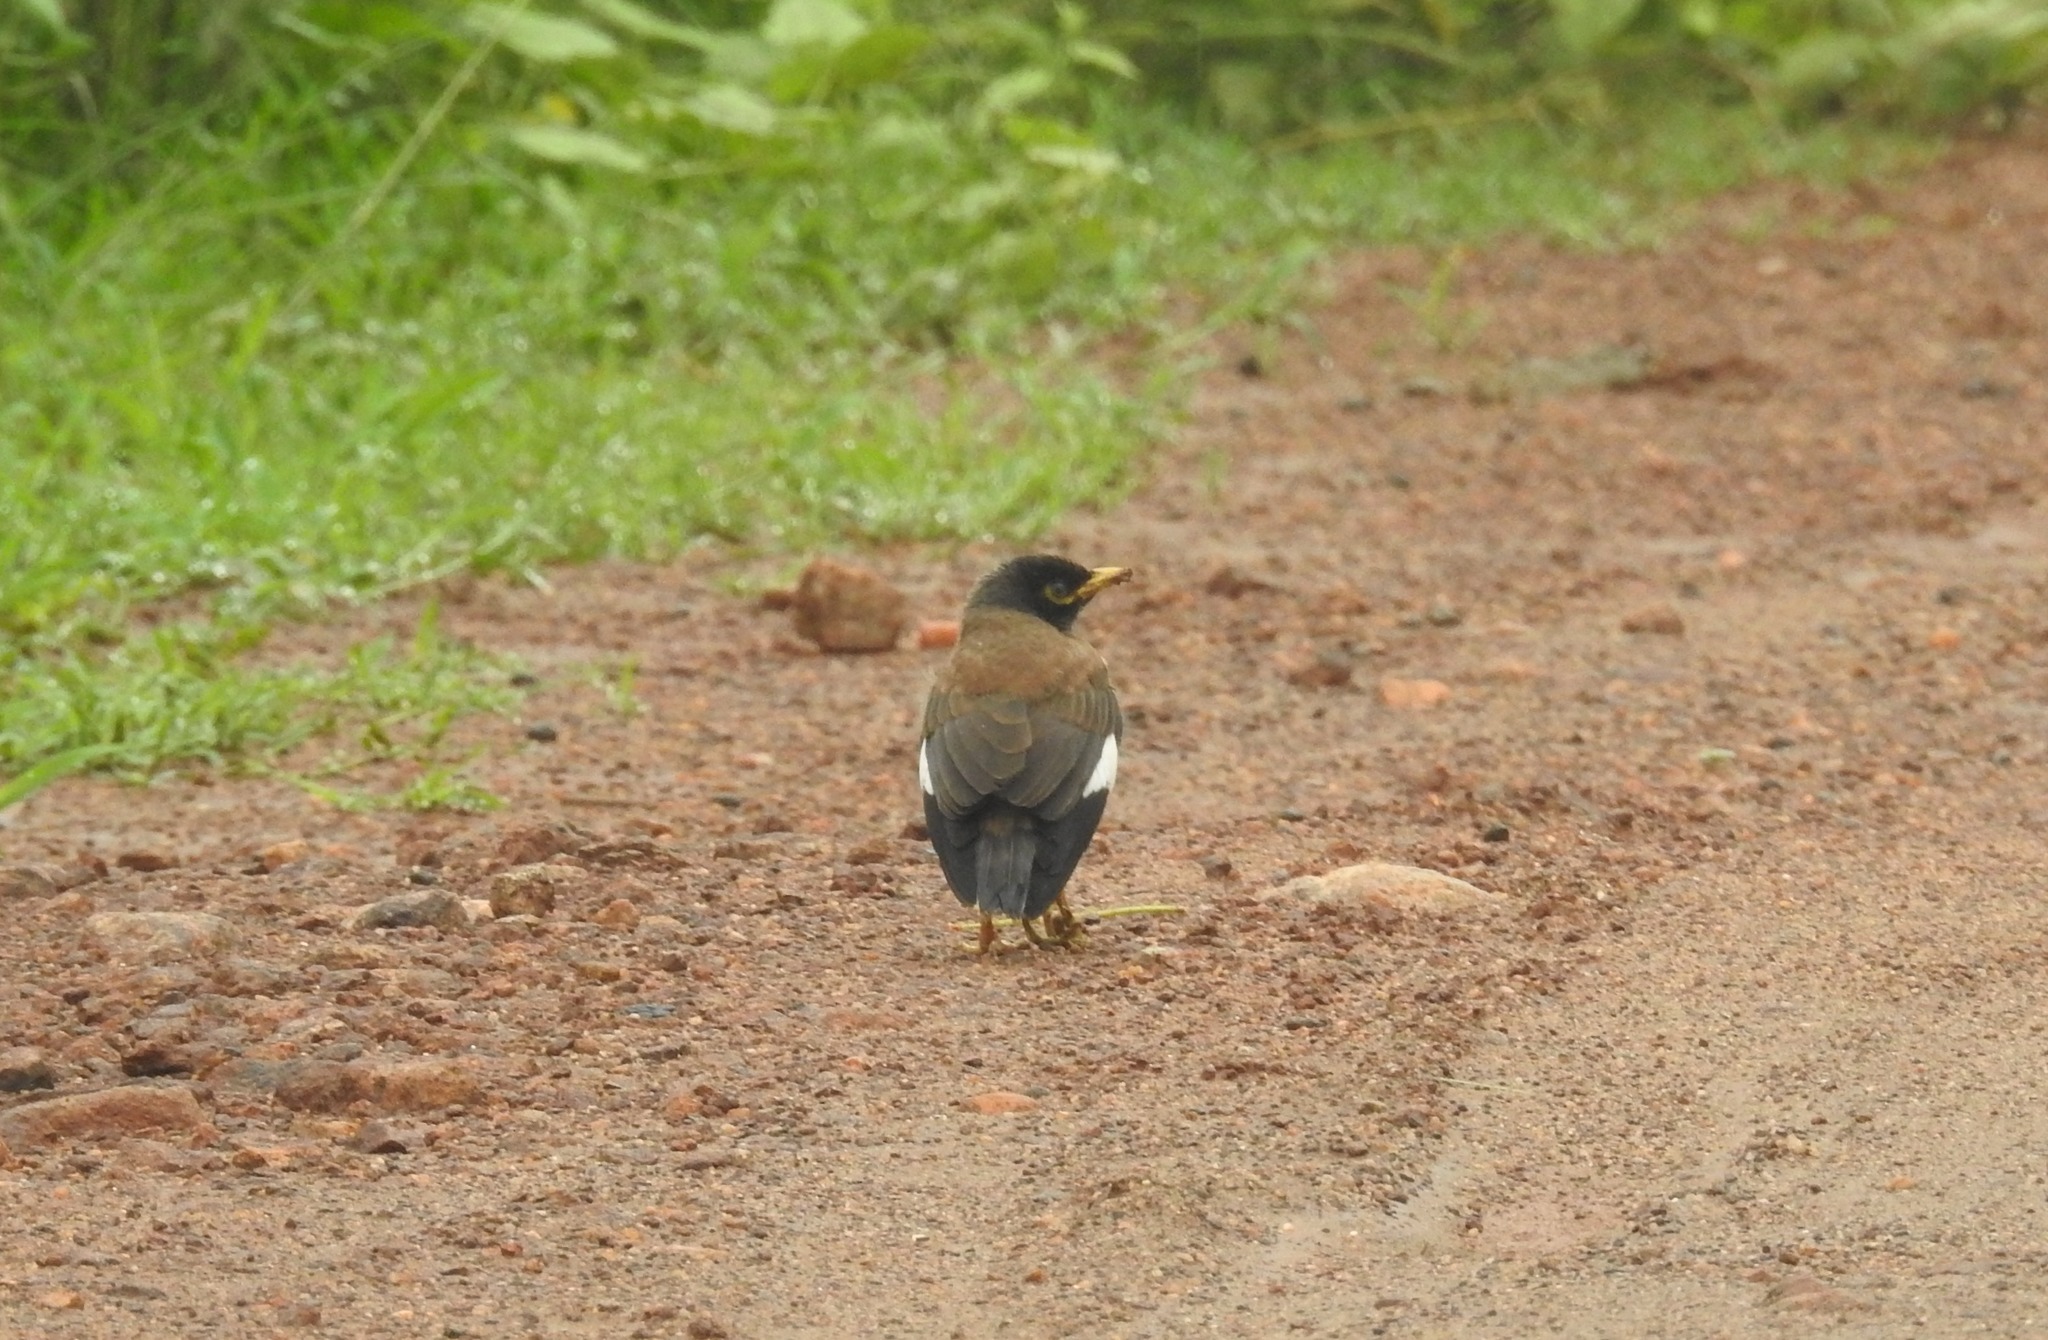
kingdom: Animalia
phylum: Chordata
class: Aves
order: Passeriformes
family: Sturnidae
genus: Acridotheres
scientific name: Acridotheres tristis
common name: Common myna
